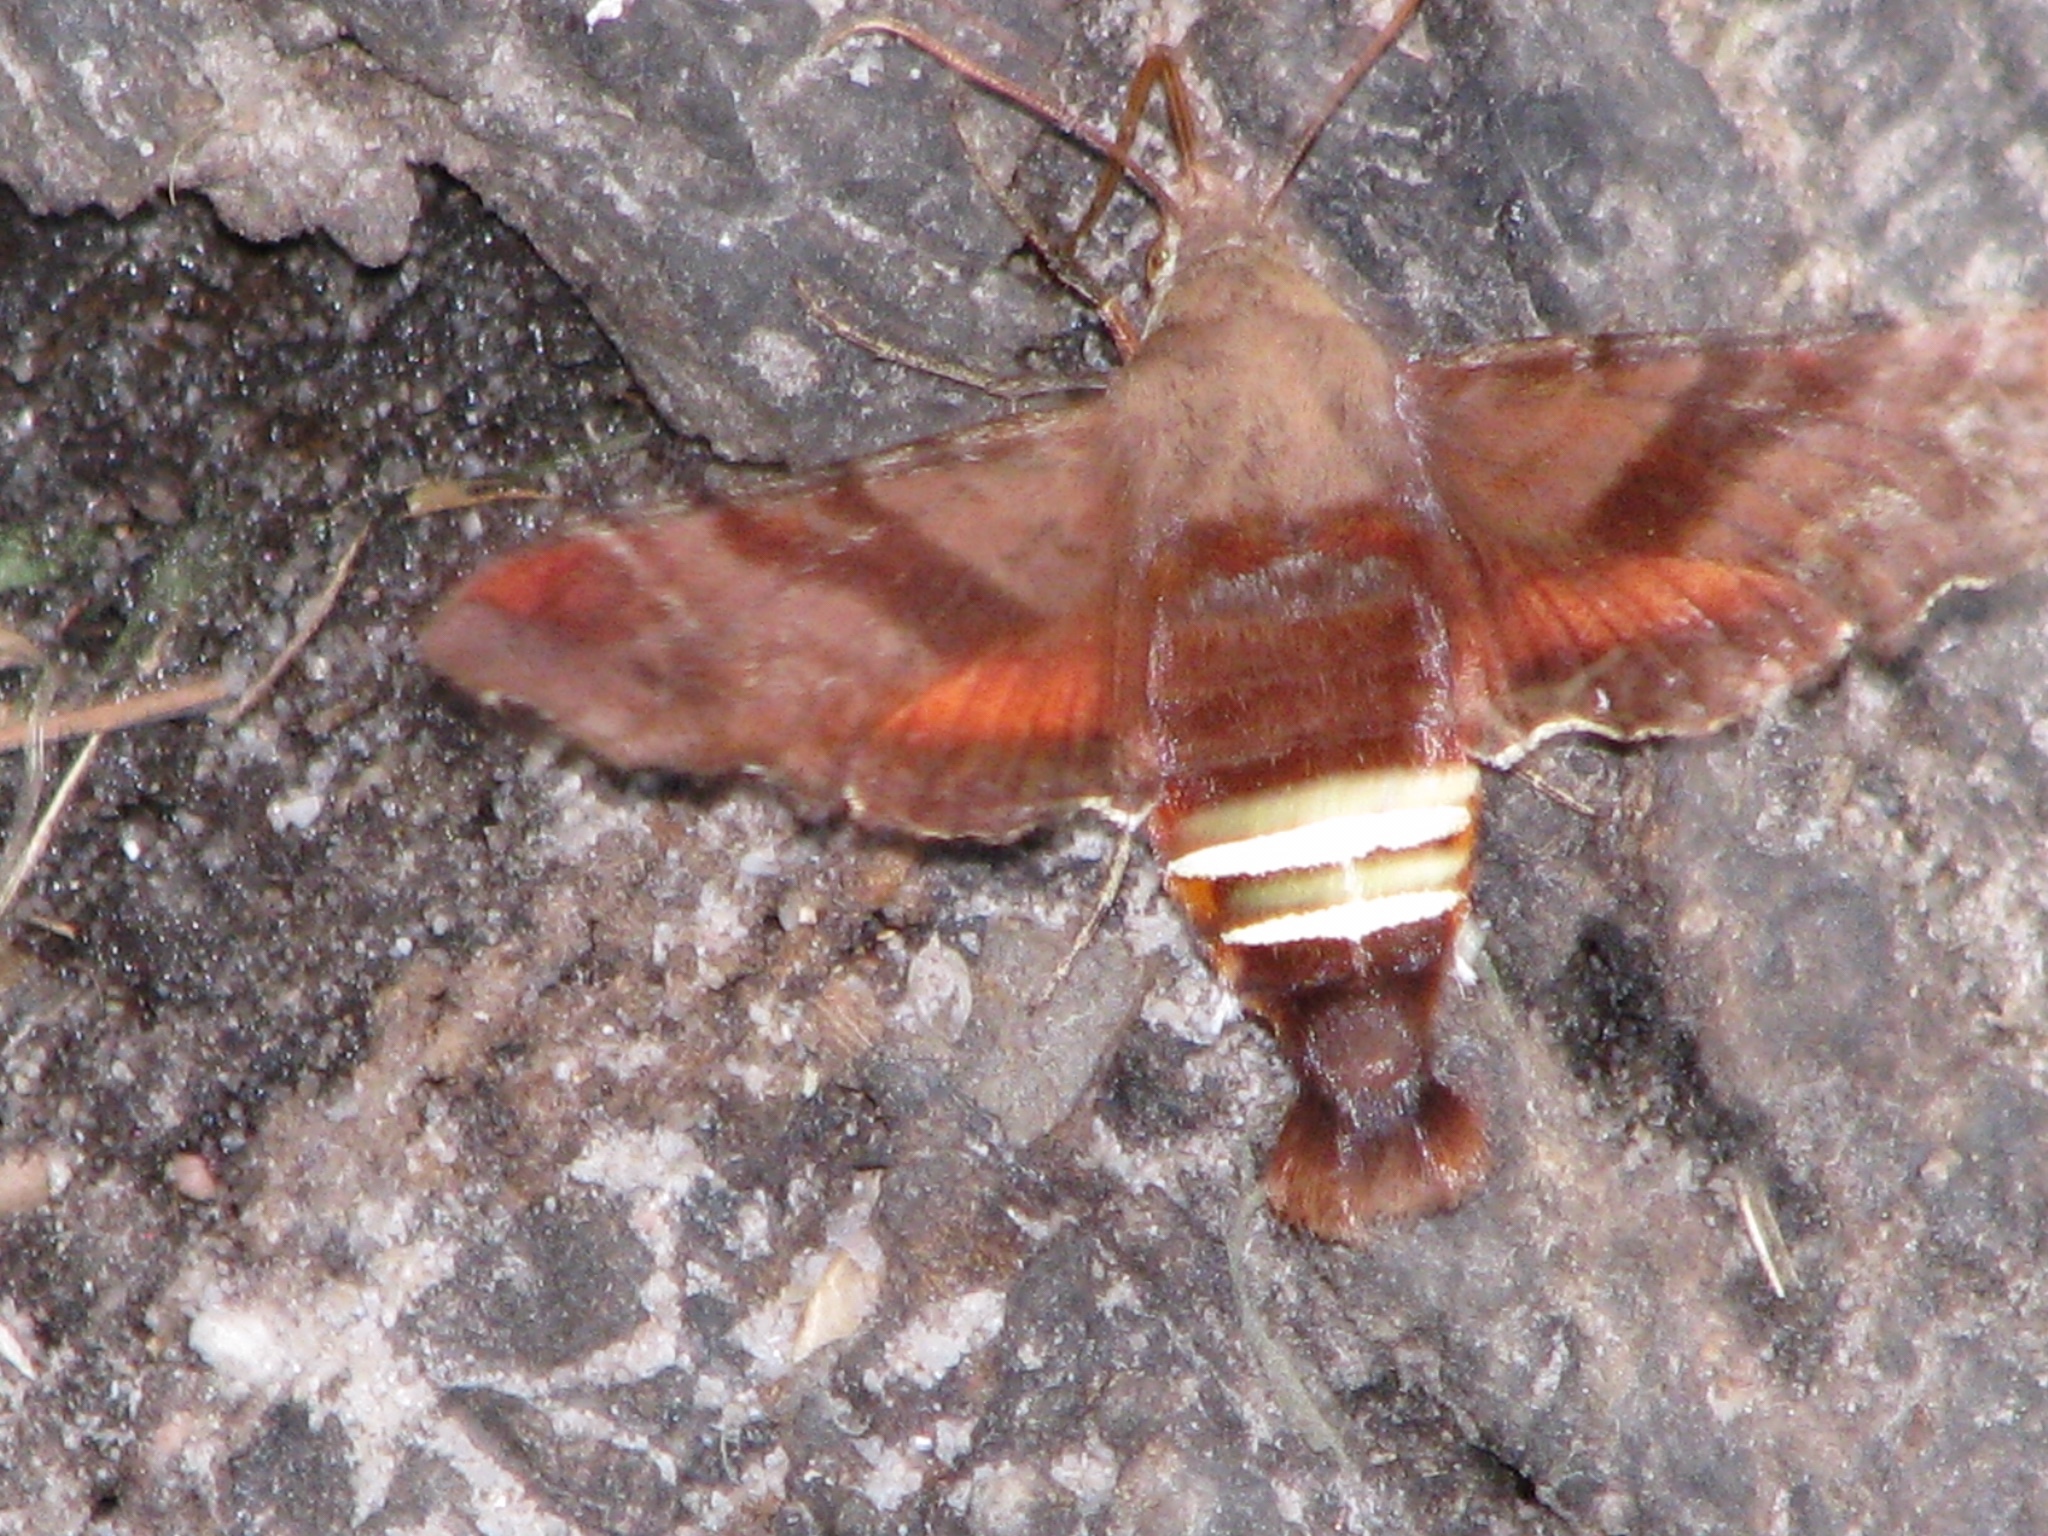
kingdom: Animalia
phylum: Arthropoda
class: Insecta
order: Lepidoptera
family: Sphingidae
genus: Amphion
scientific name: Amphion floridensis
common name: Nessus sphinx
